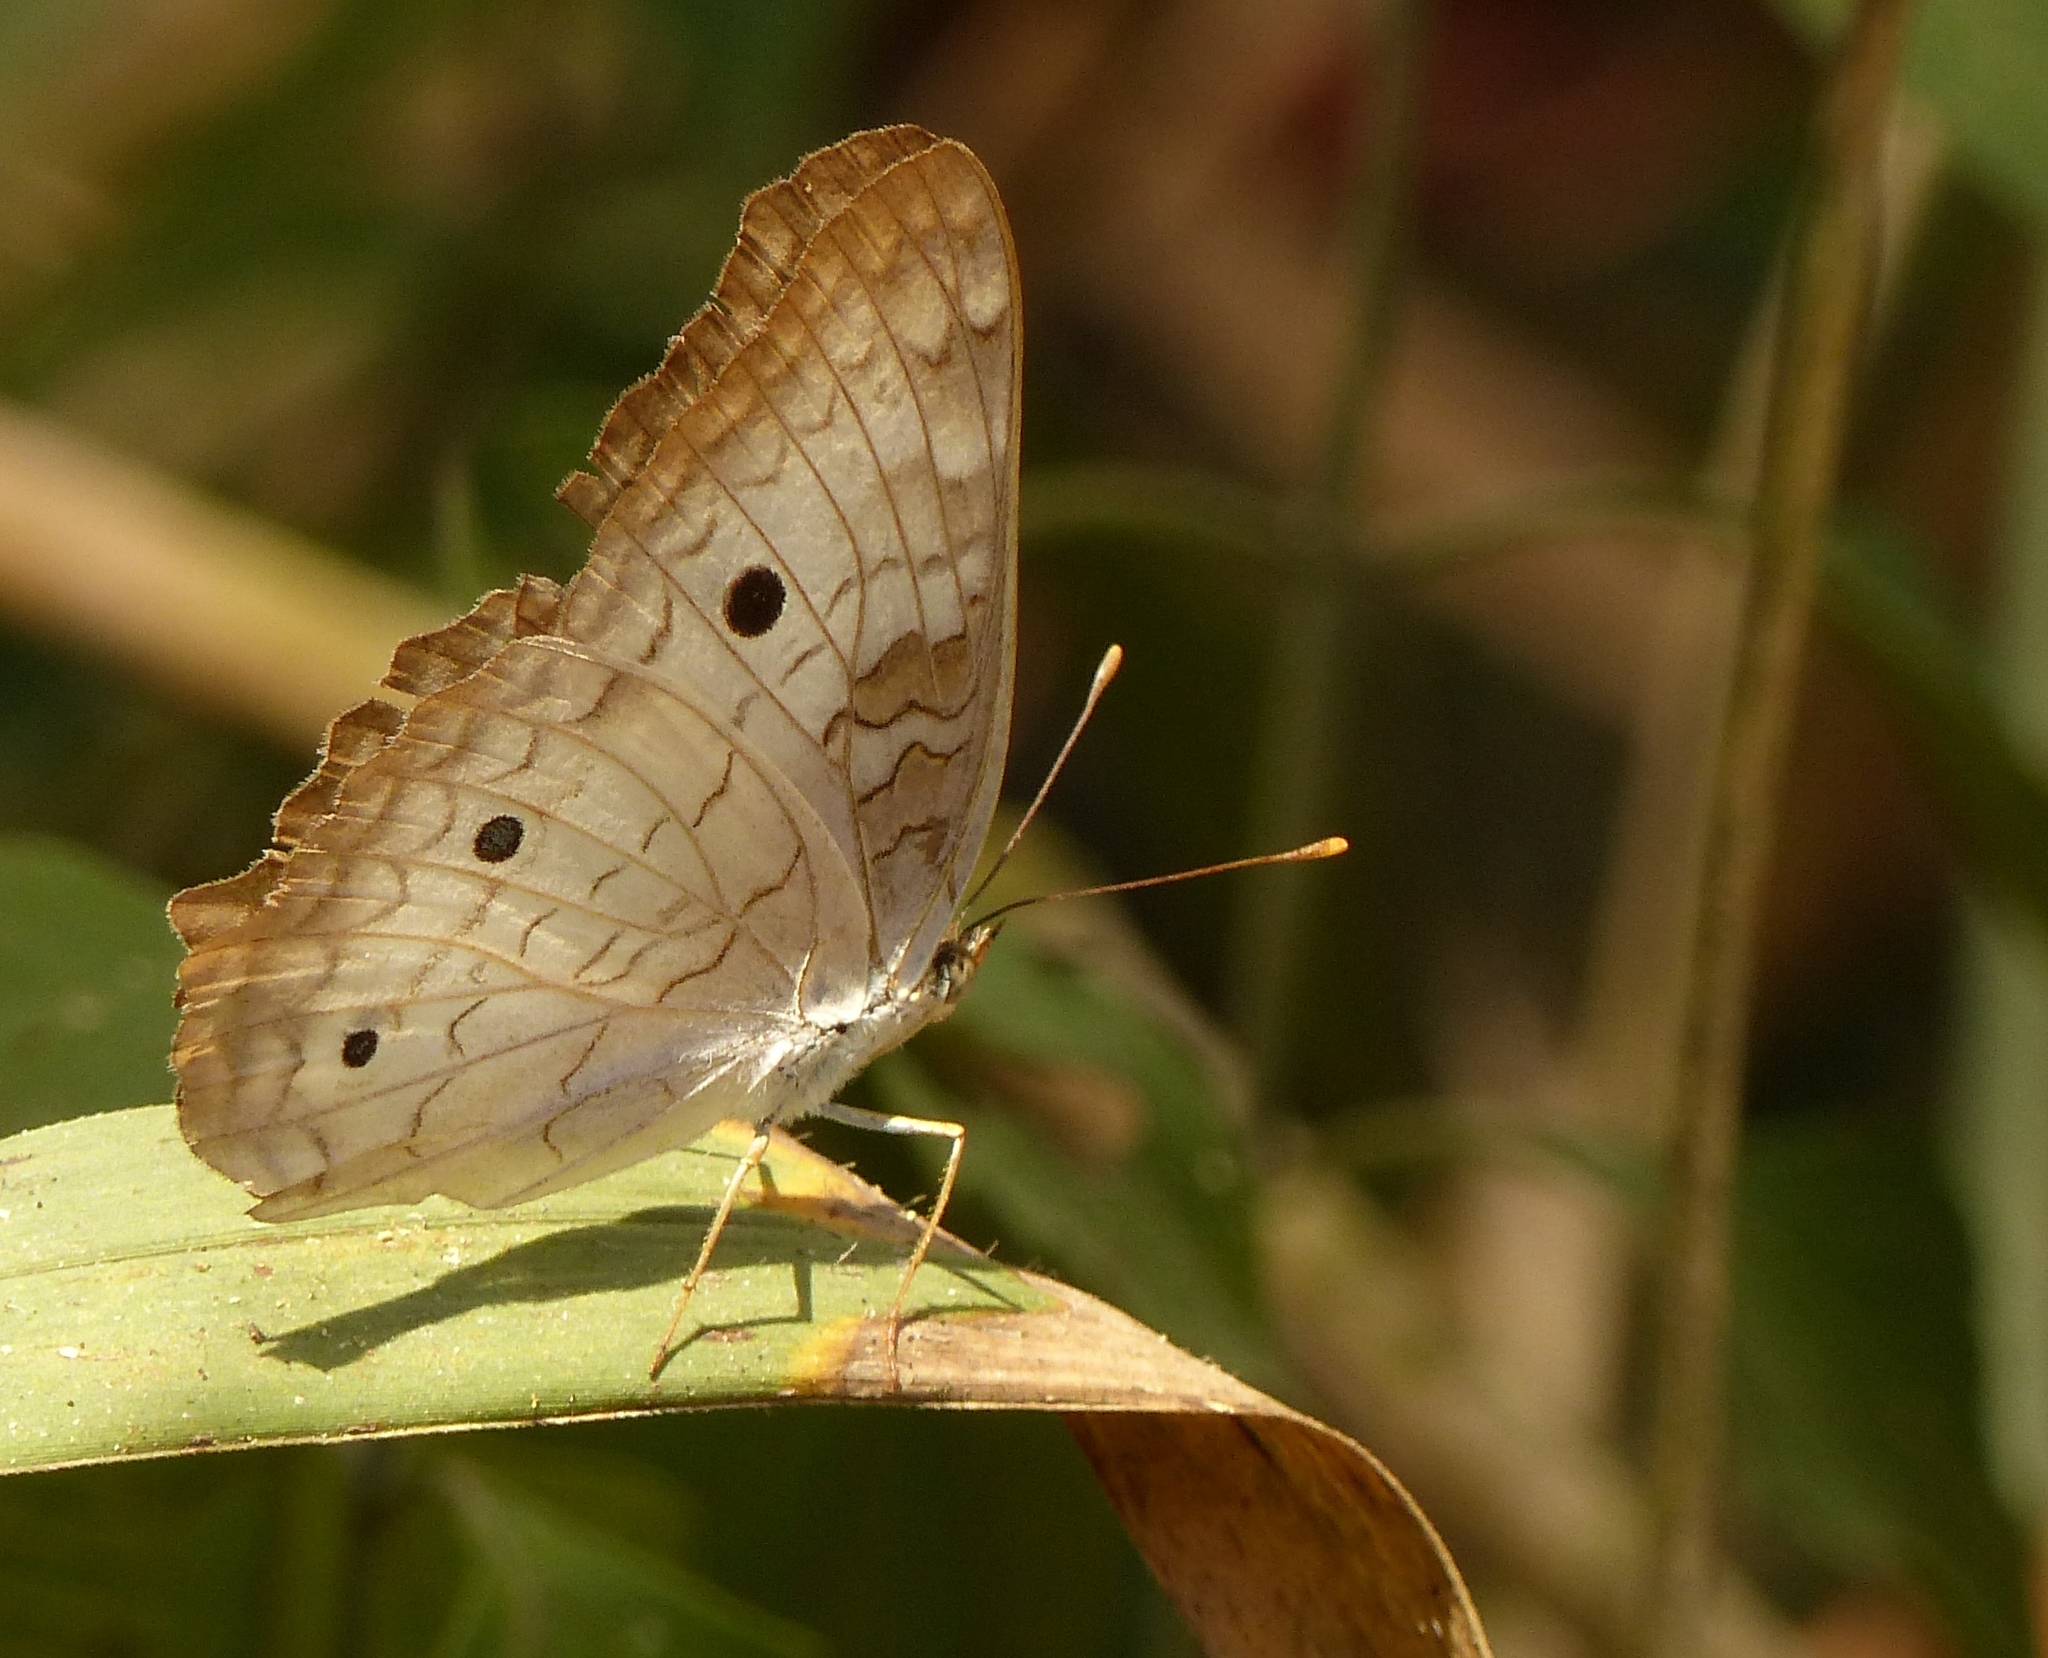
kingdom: Animalia
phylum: Arthropoda
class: Insecta
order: Lepidoptera
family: Nymphalidae
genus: Anartia
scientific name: Anartia jatrophae
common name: White peacock
